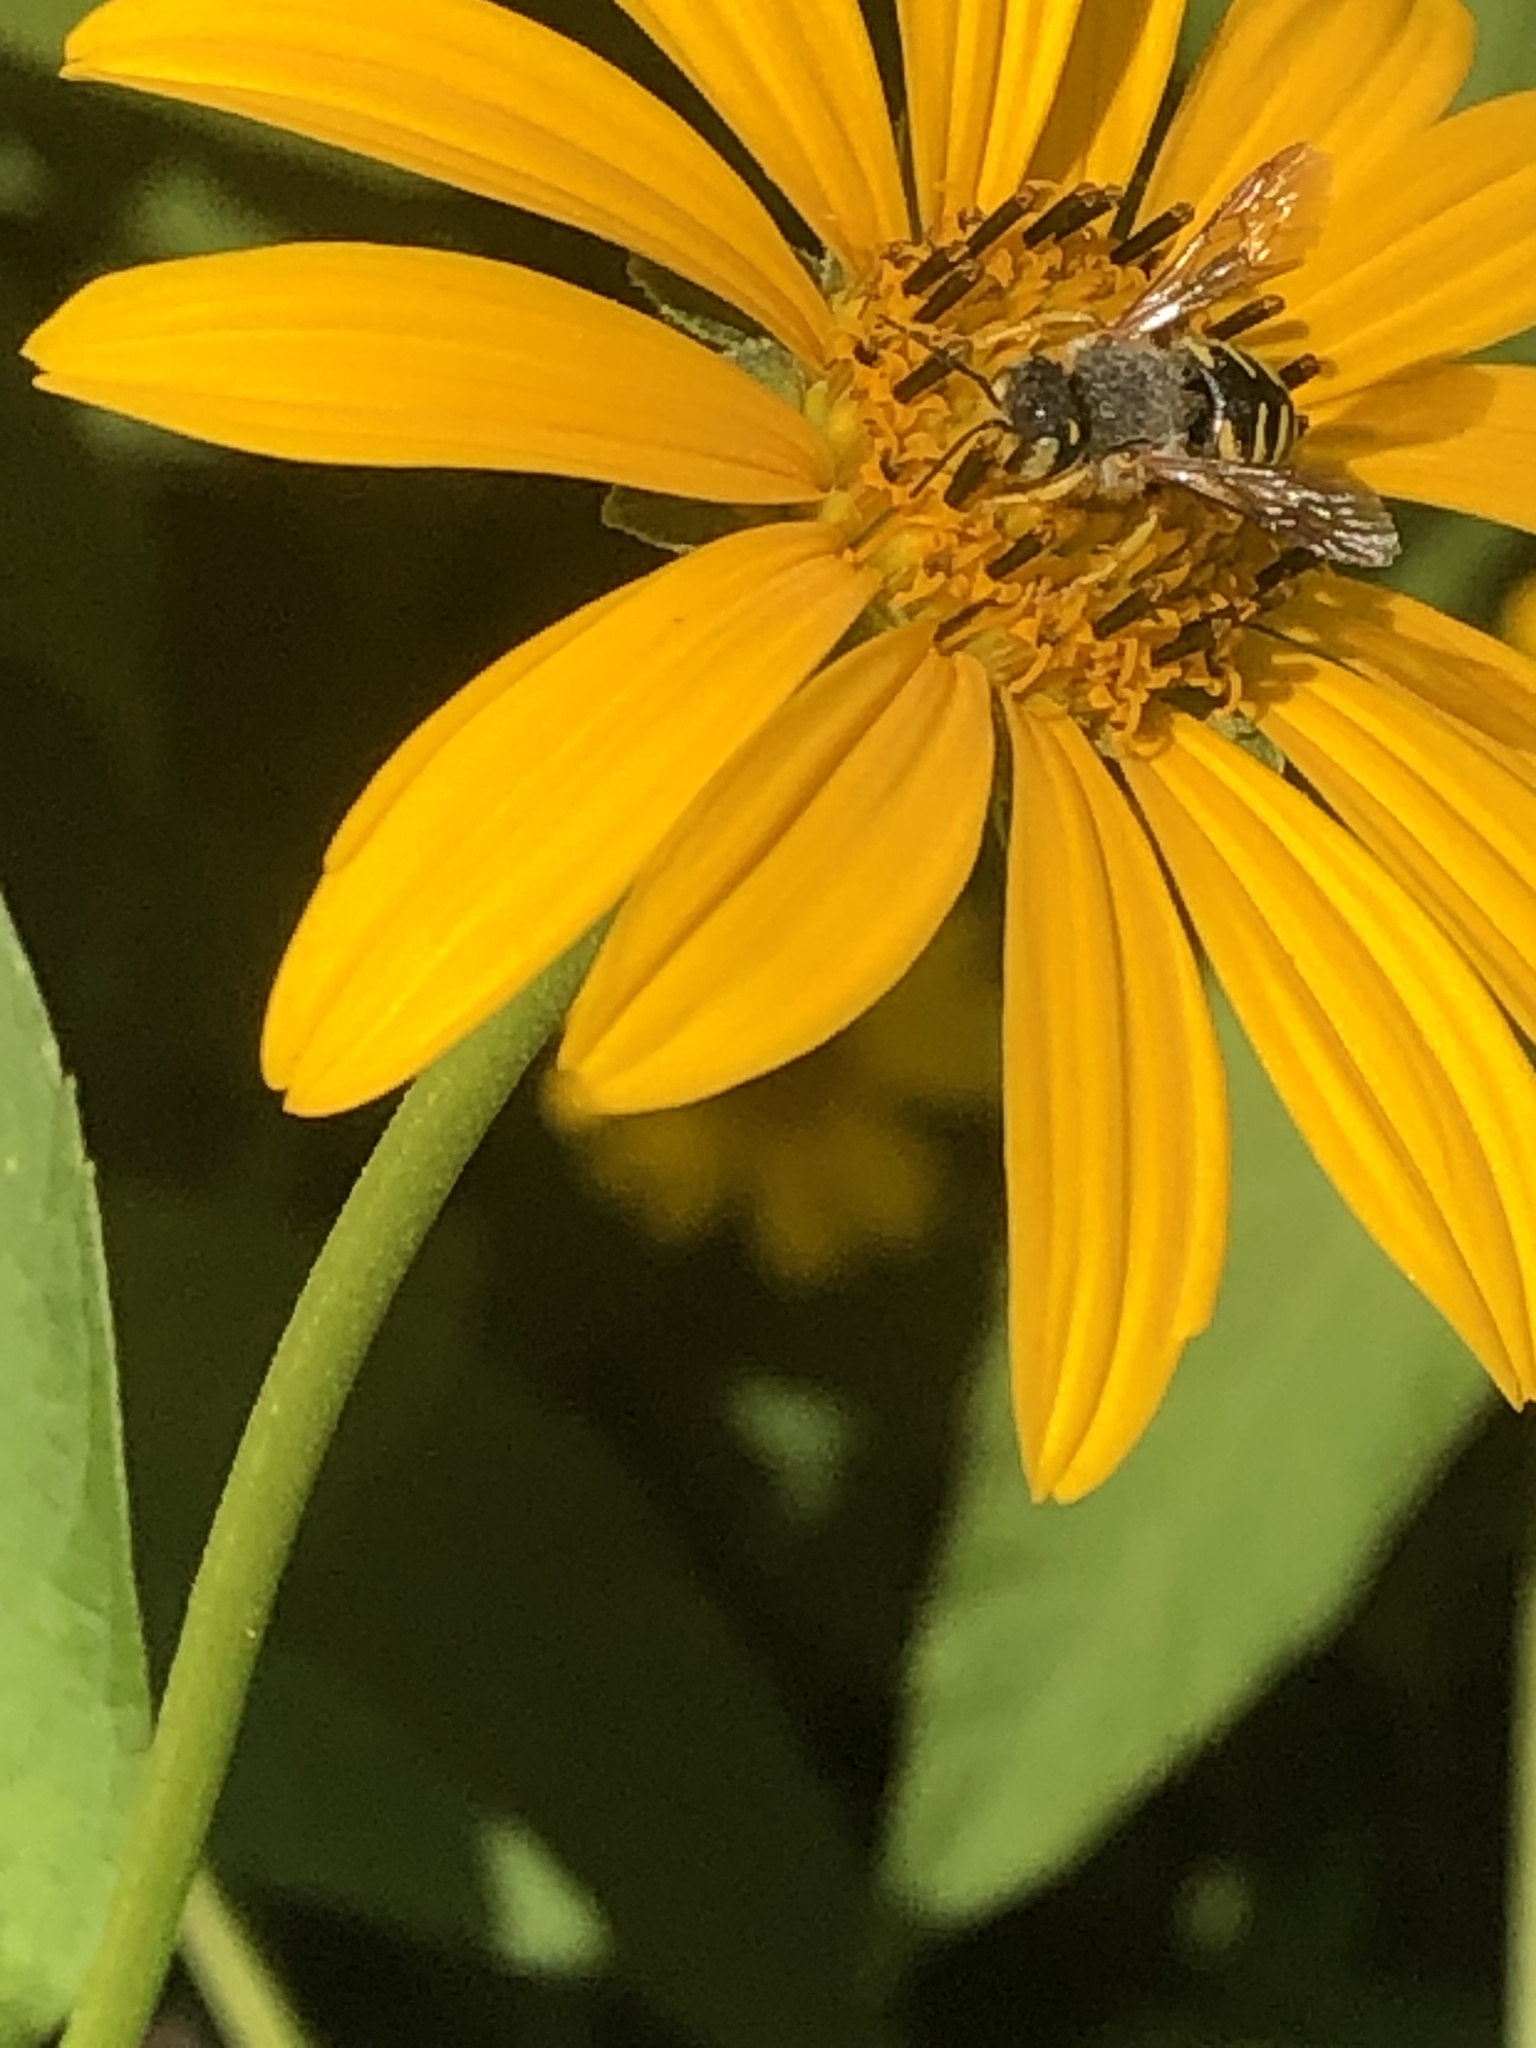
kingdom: Animalia
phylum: Arthropoda
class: Insecta
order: Hymenoptera
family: Megachilidae
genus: Anthidium
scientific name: Anthidium oblongatum
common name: Oblong wool carder bee
